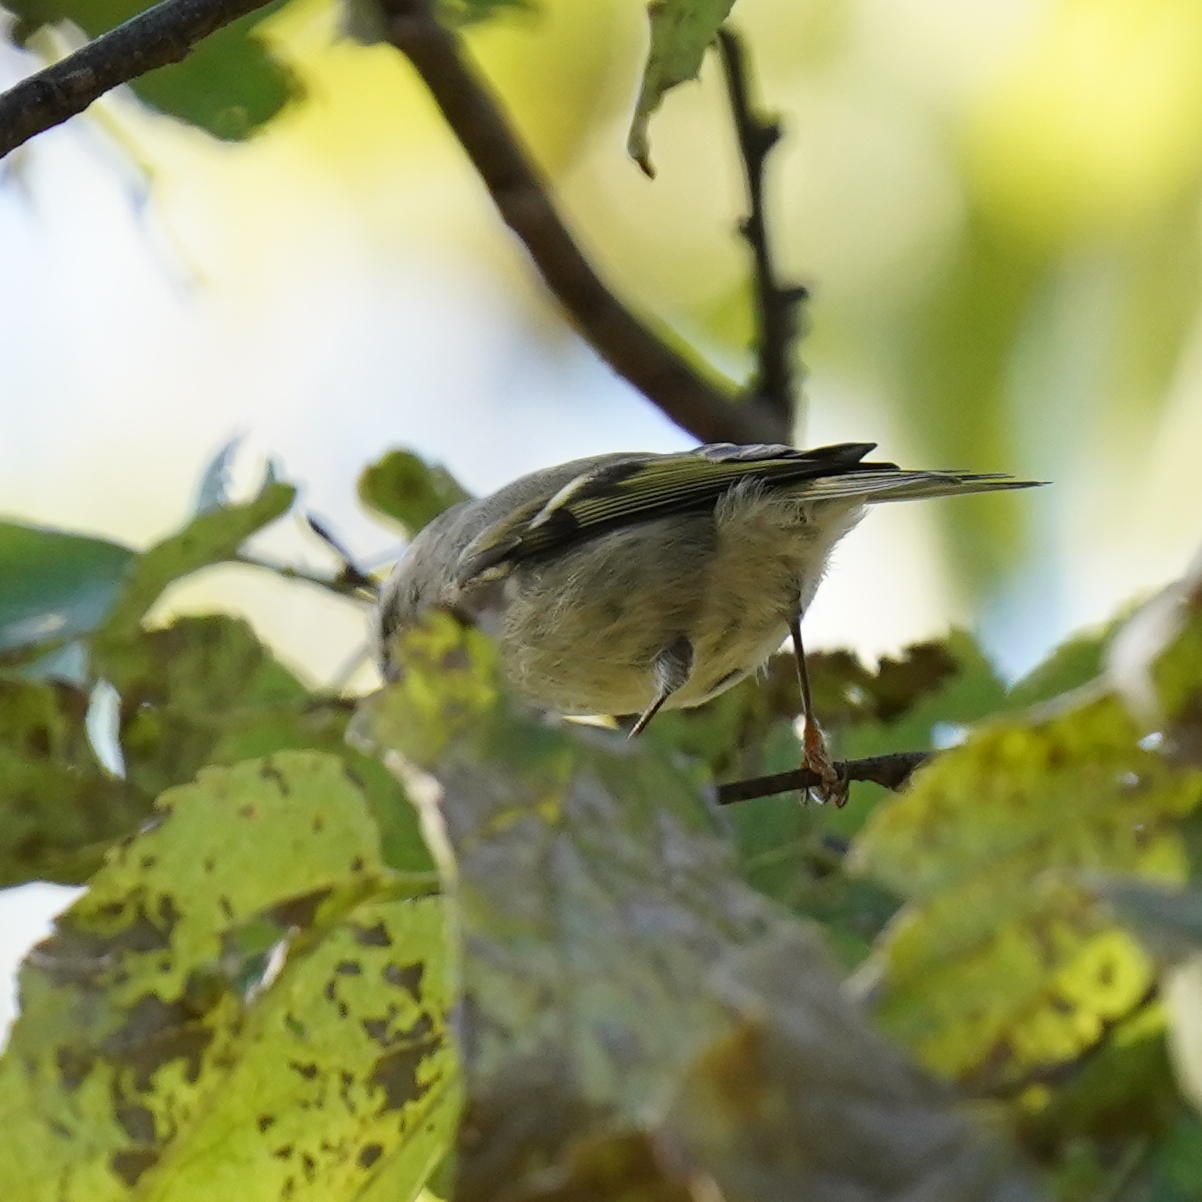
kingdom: Animalia
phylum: Chordata
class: Aves
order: Passeriformes
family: Regulidae
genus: Regulus
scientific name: Regulus satrapa
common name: Golden-crowned kinglet
